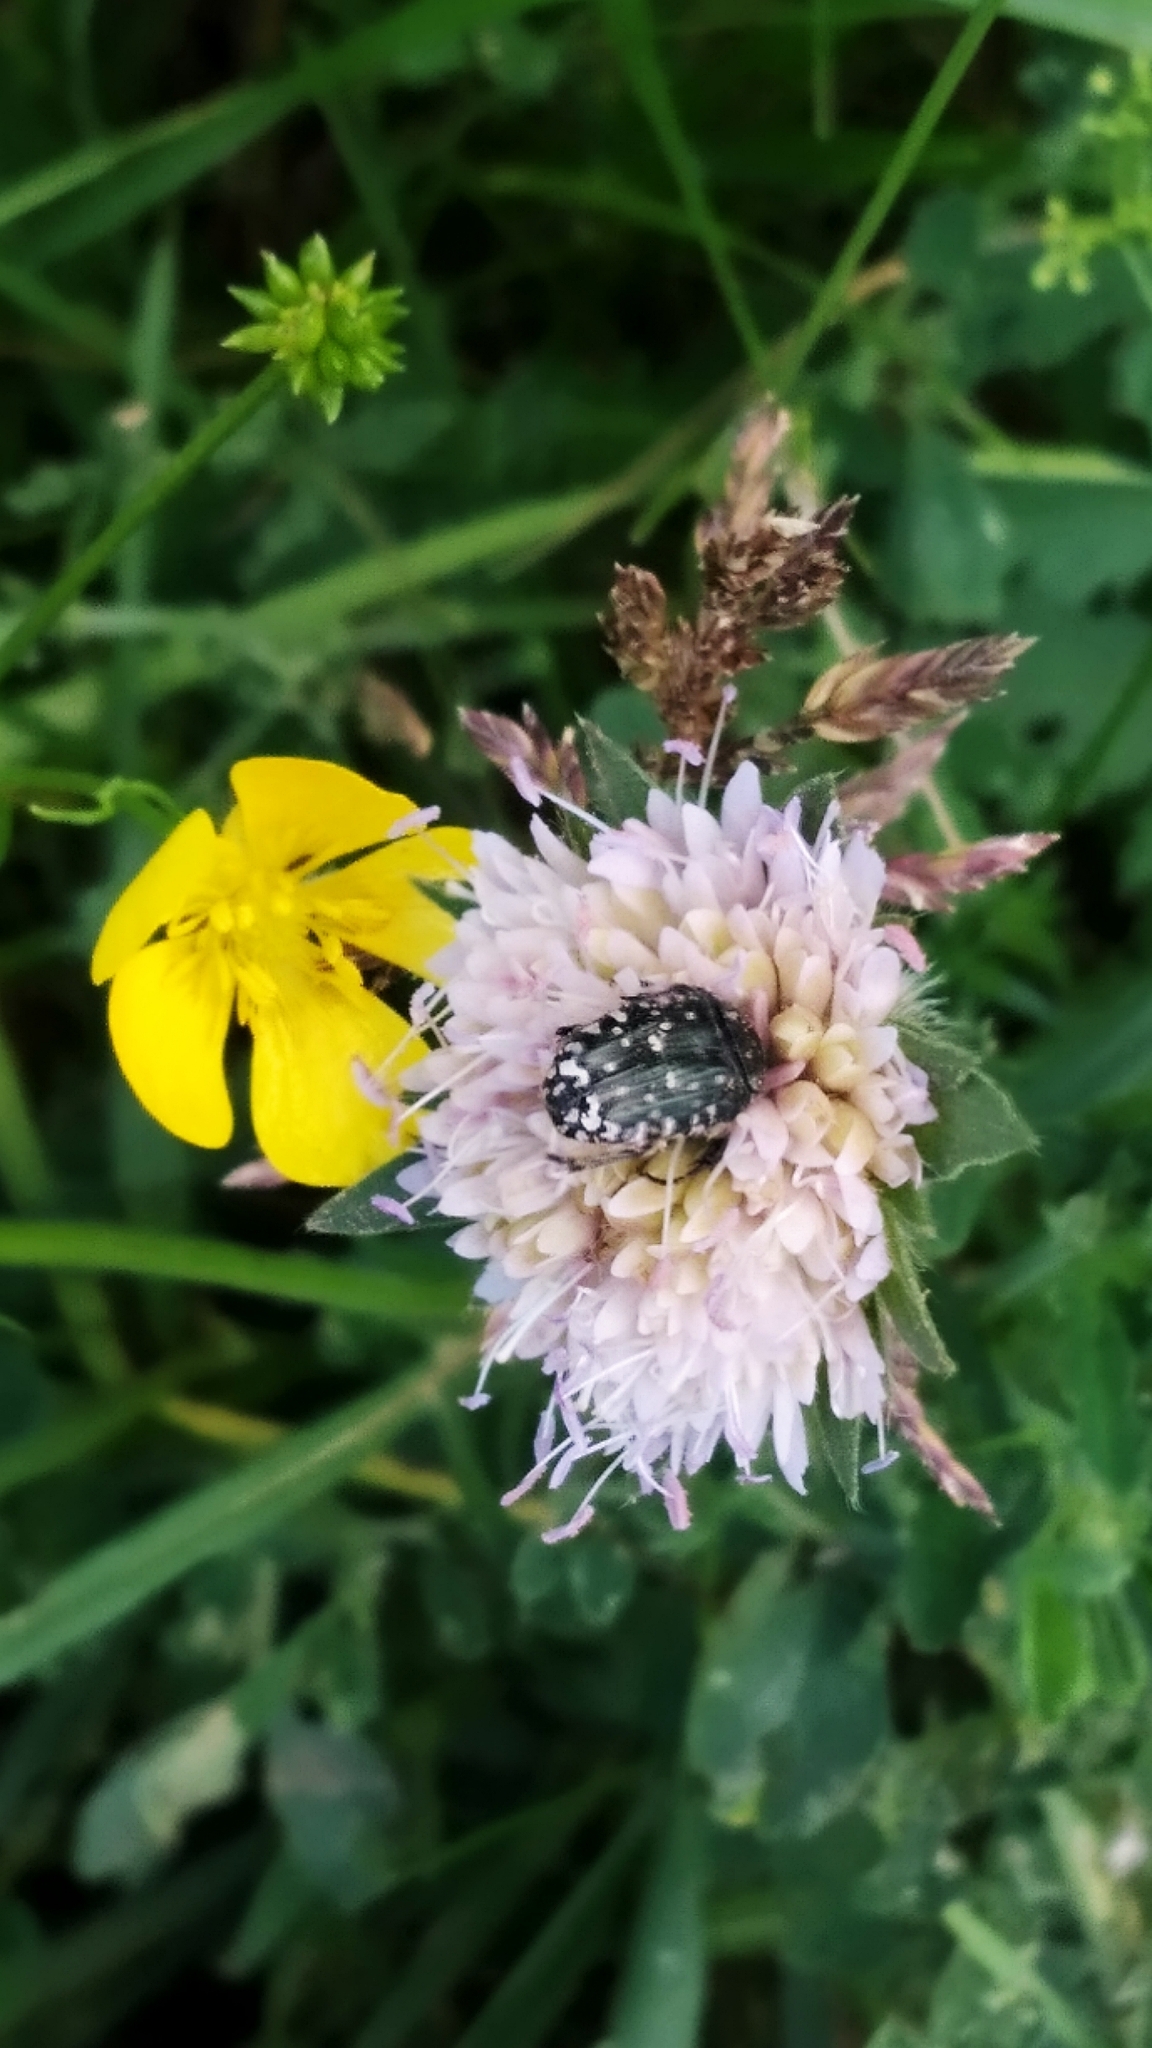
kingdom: Animalia
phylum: Arthropoda
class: Insecta
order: Coleoptera
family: Scarabaeidae
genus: Oxythyrea
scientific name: Oxythyrea funesta
